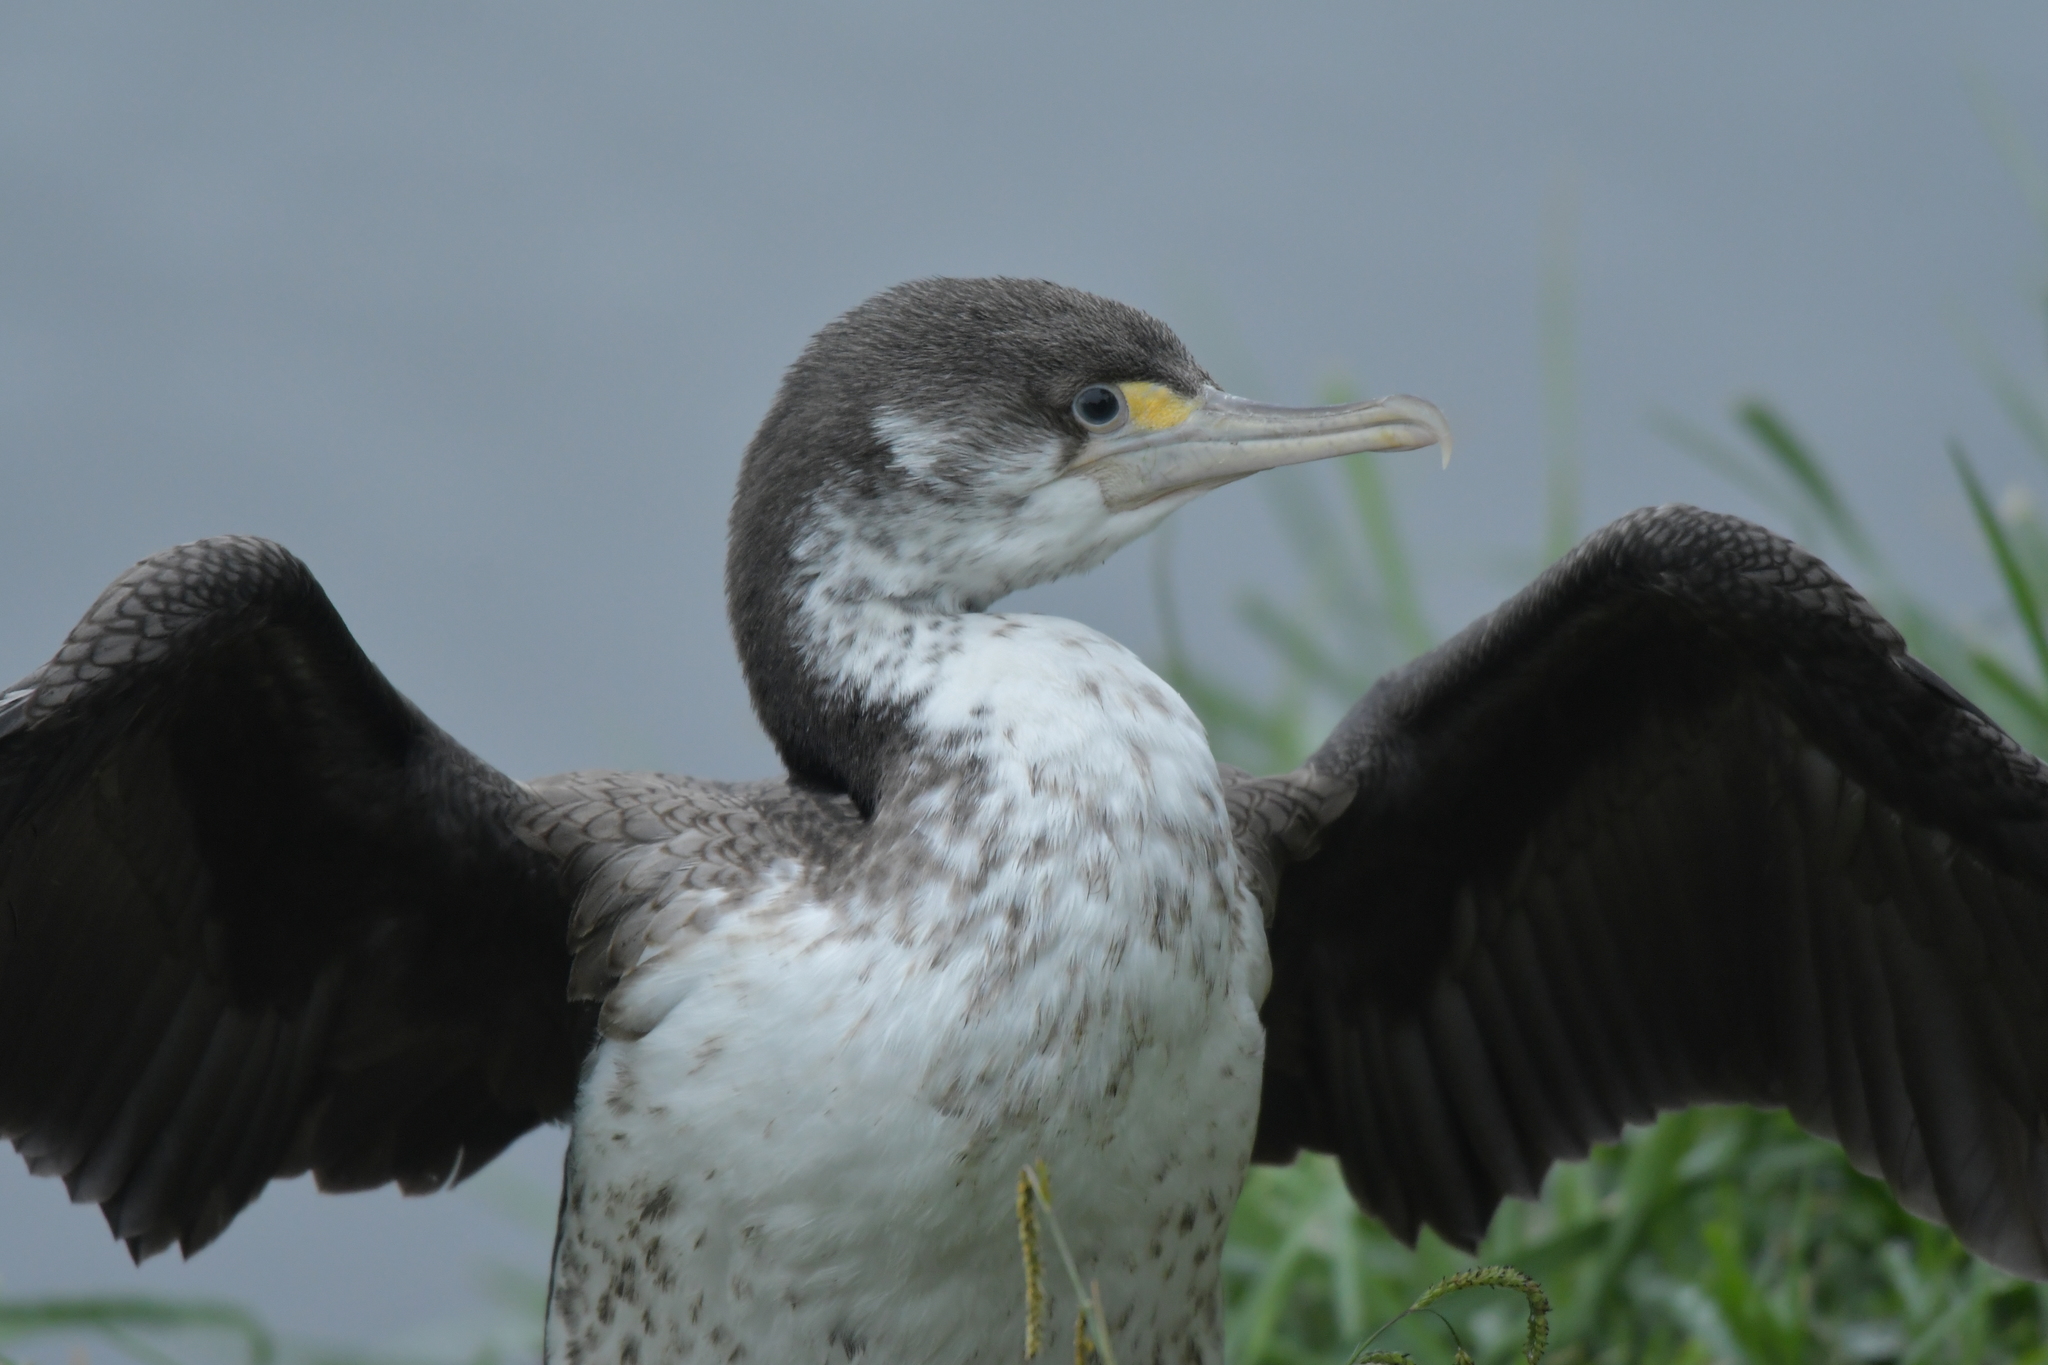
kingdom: Animalia
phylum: Chordata
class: Aves
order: Suliformes
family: Phalacrocoracidae
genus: Phalacrocorax
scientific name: Phalacrocorax varius
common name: Pied cormorant
